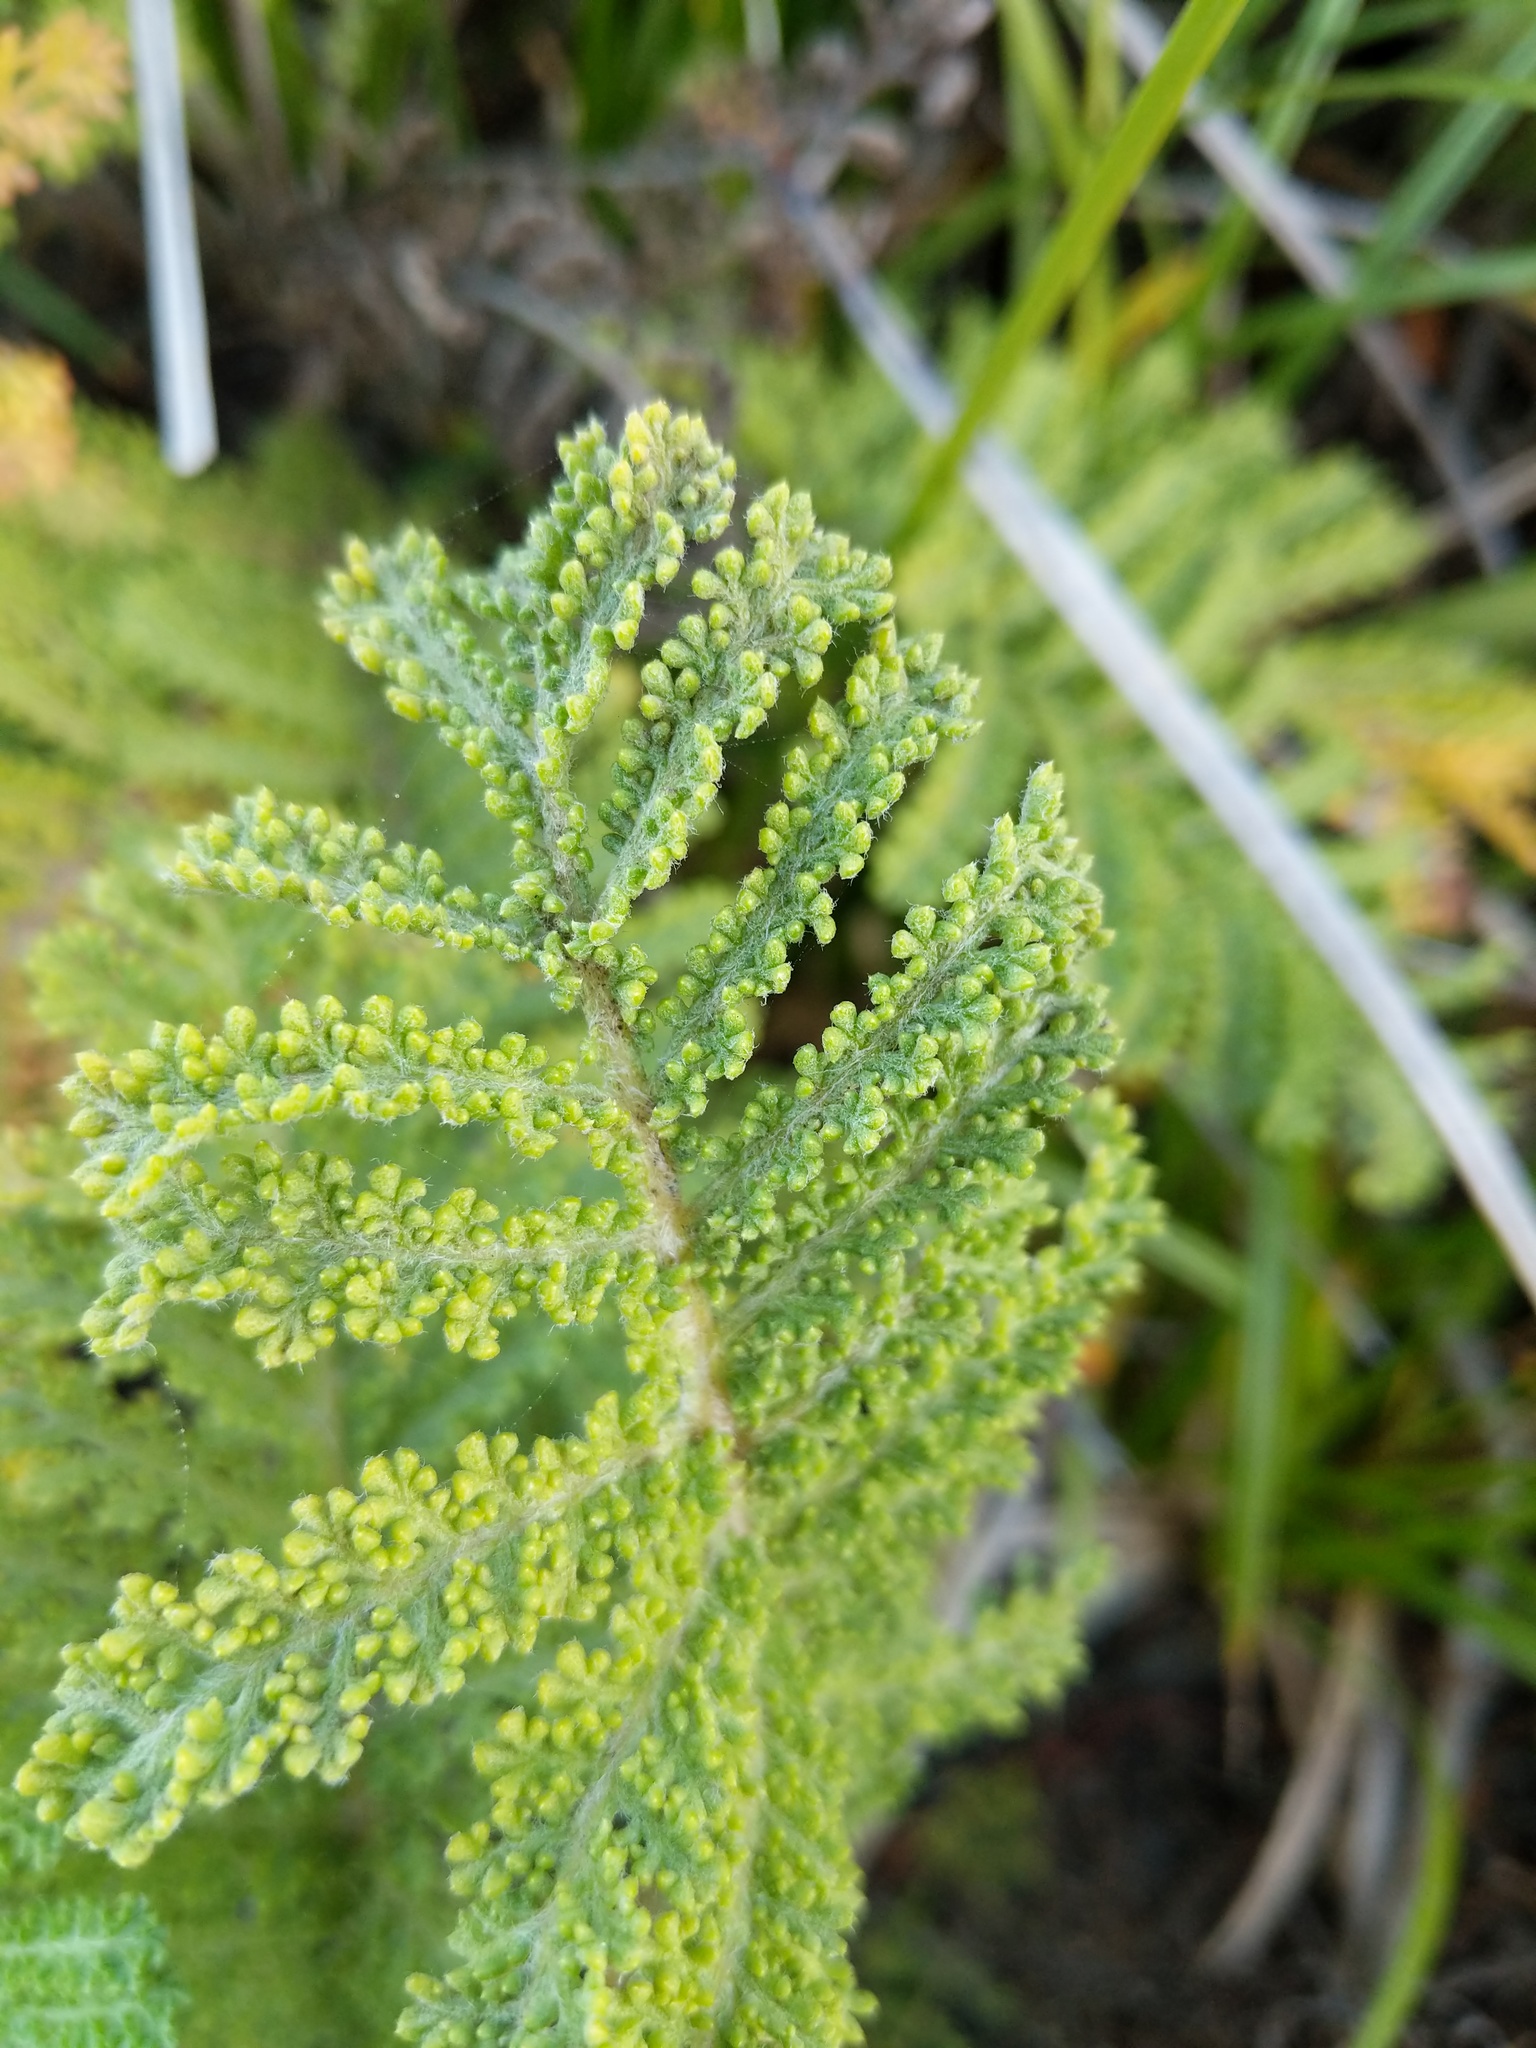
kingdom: Plantae
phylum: Tracheophyta
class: Magnoliopsida
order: Asterales
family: Asteraceae
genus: Tanacetum
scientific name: Tanacetum bipinnatum
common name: Dwarf tansy
